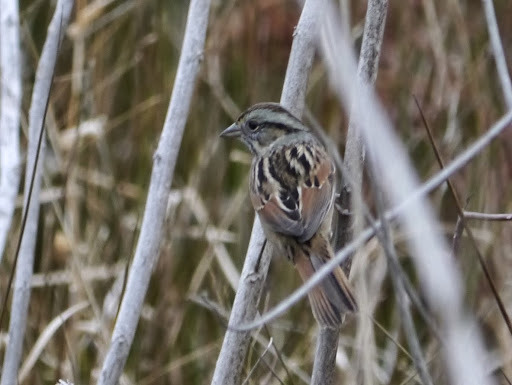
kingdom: Animalia
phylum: Chordata
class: Aves
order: Passeriformes
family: Passerellidae
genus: Melospiza
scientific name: Melospiza georgiana
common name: Swamp sparrow
